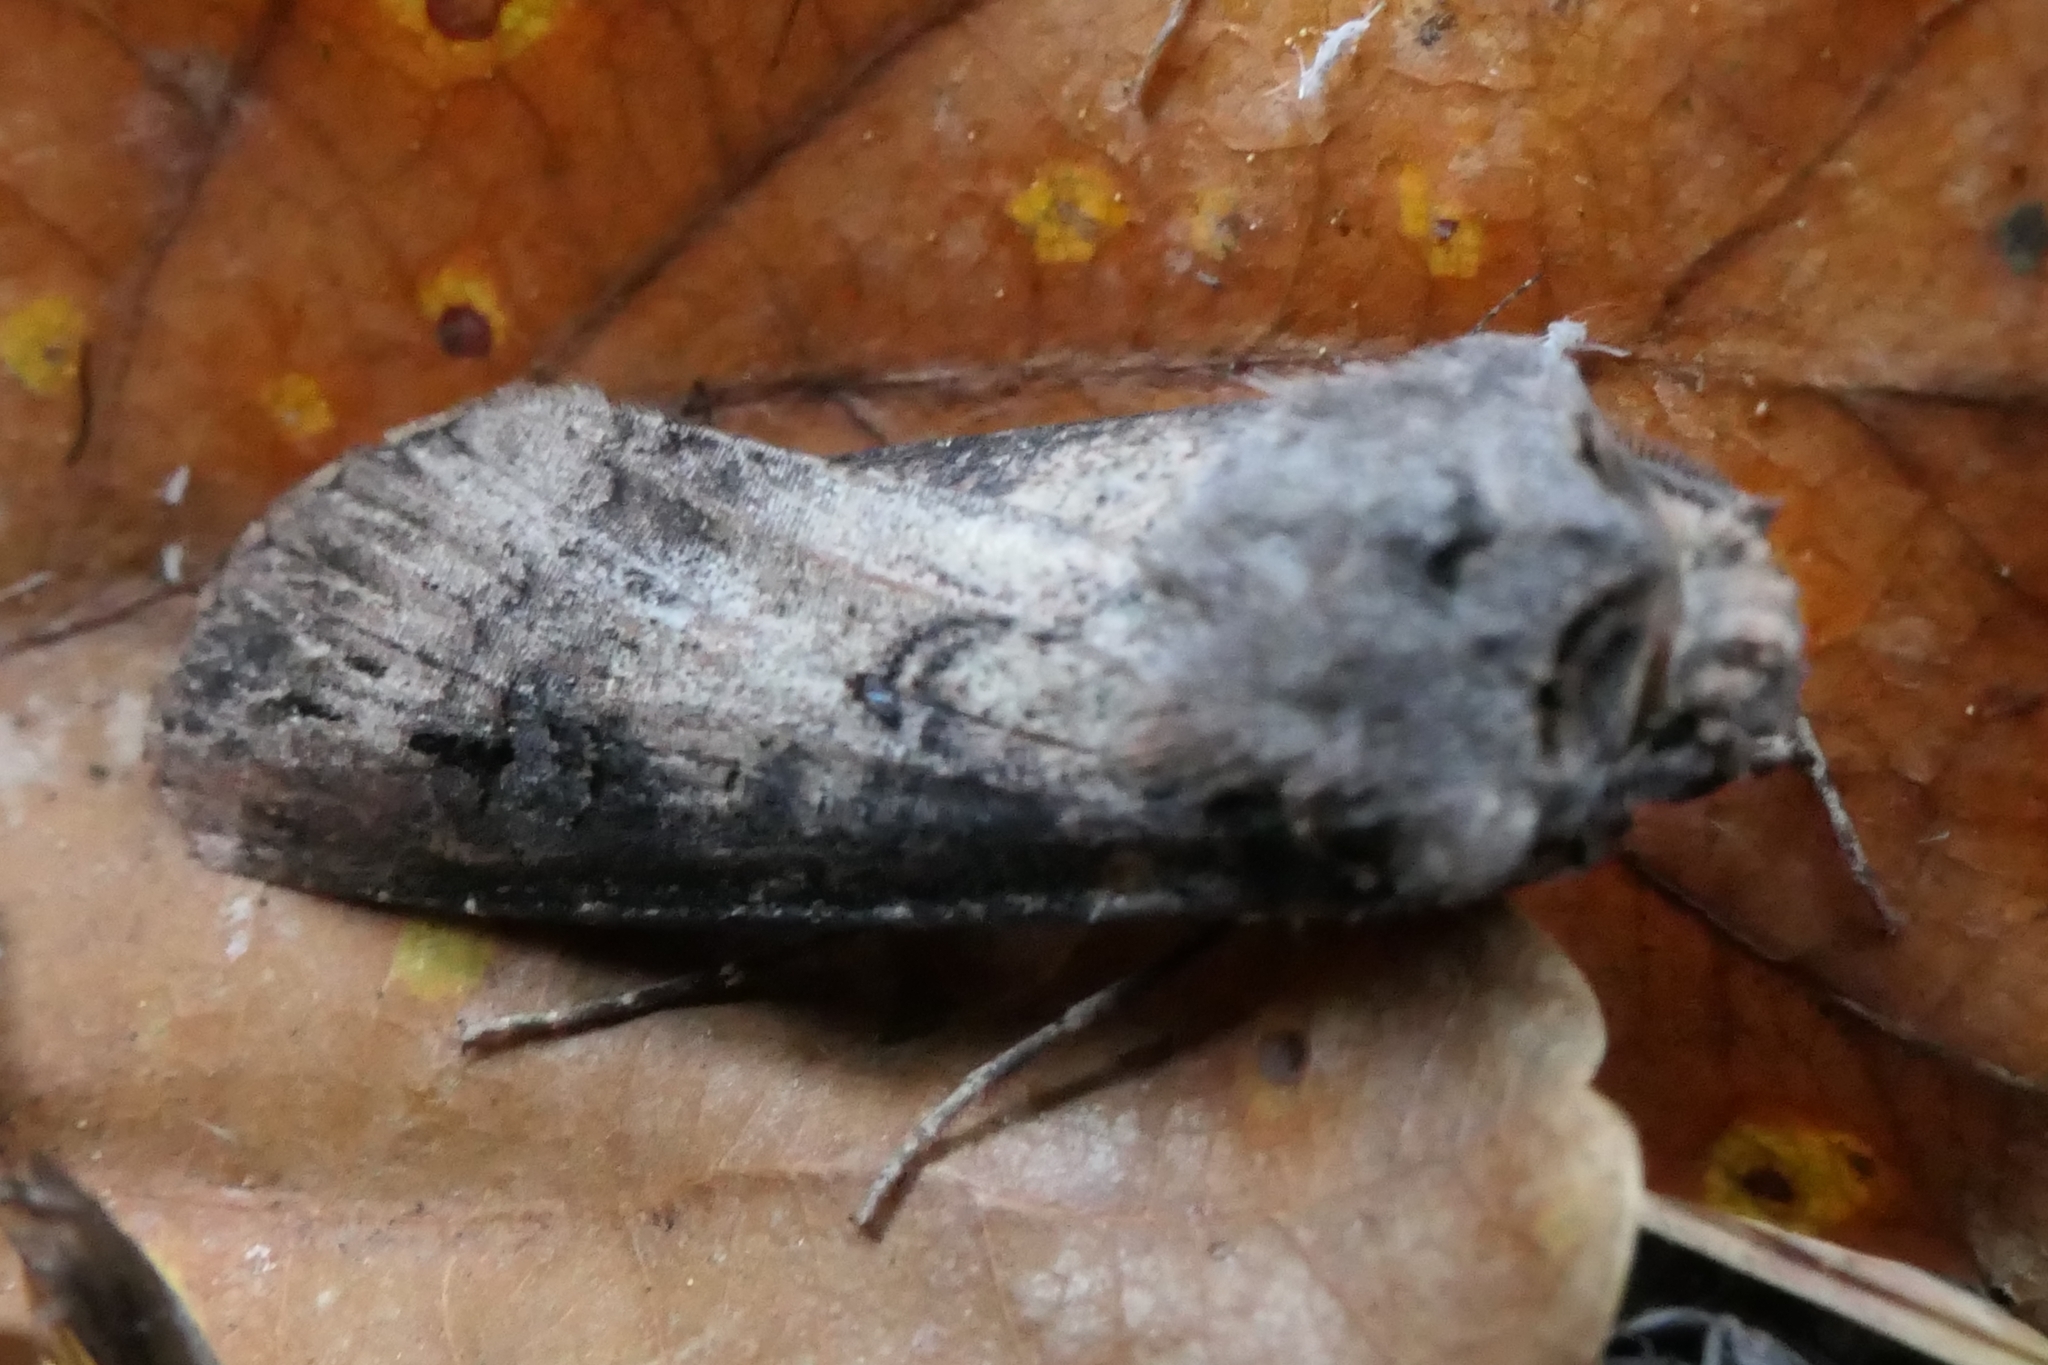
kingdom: Animalia
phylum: Arthropoda
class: Insecta
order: Lepidoptera
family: Noctuidae
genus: Agrotis
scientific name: Agrotis ipsilon
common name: Dark sword-grass
